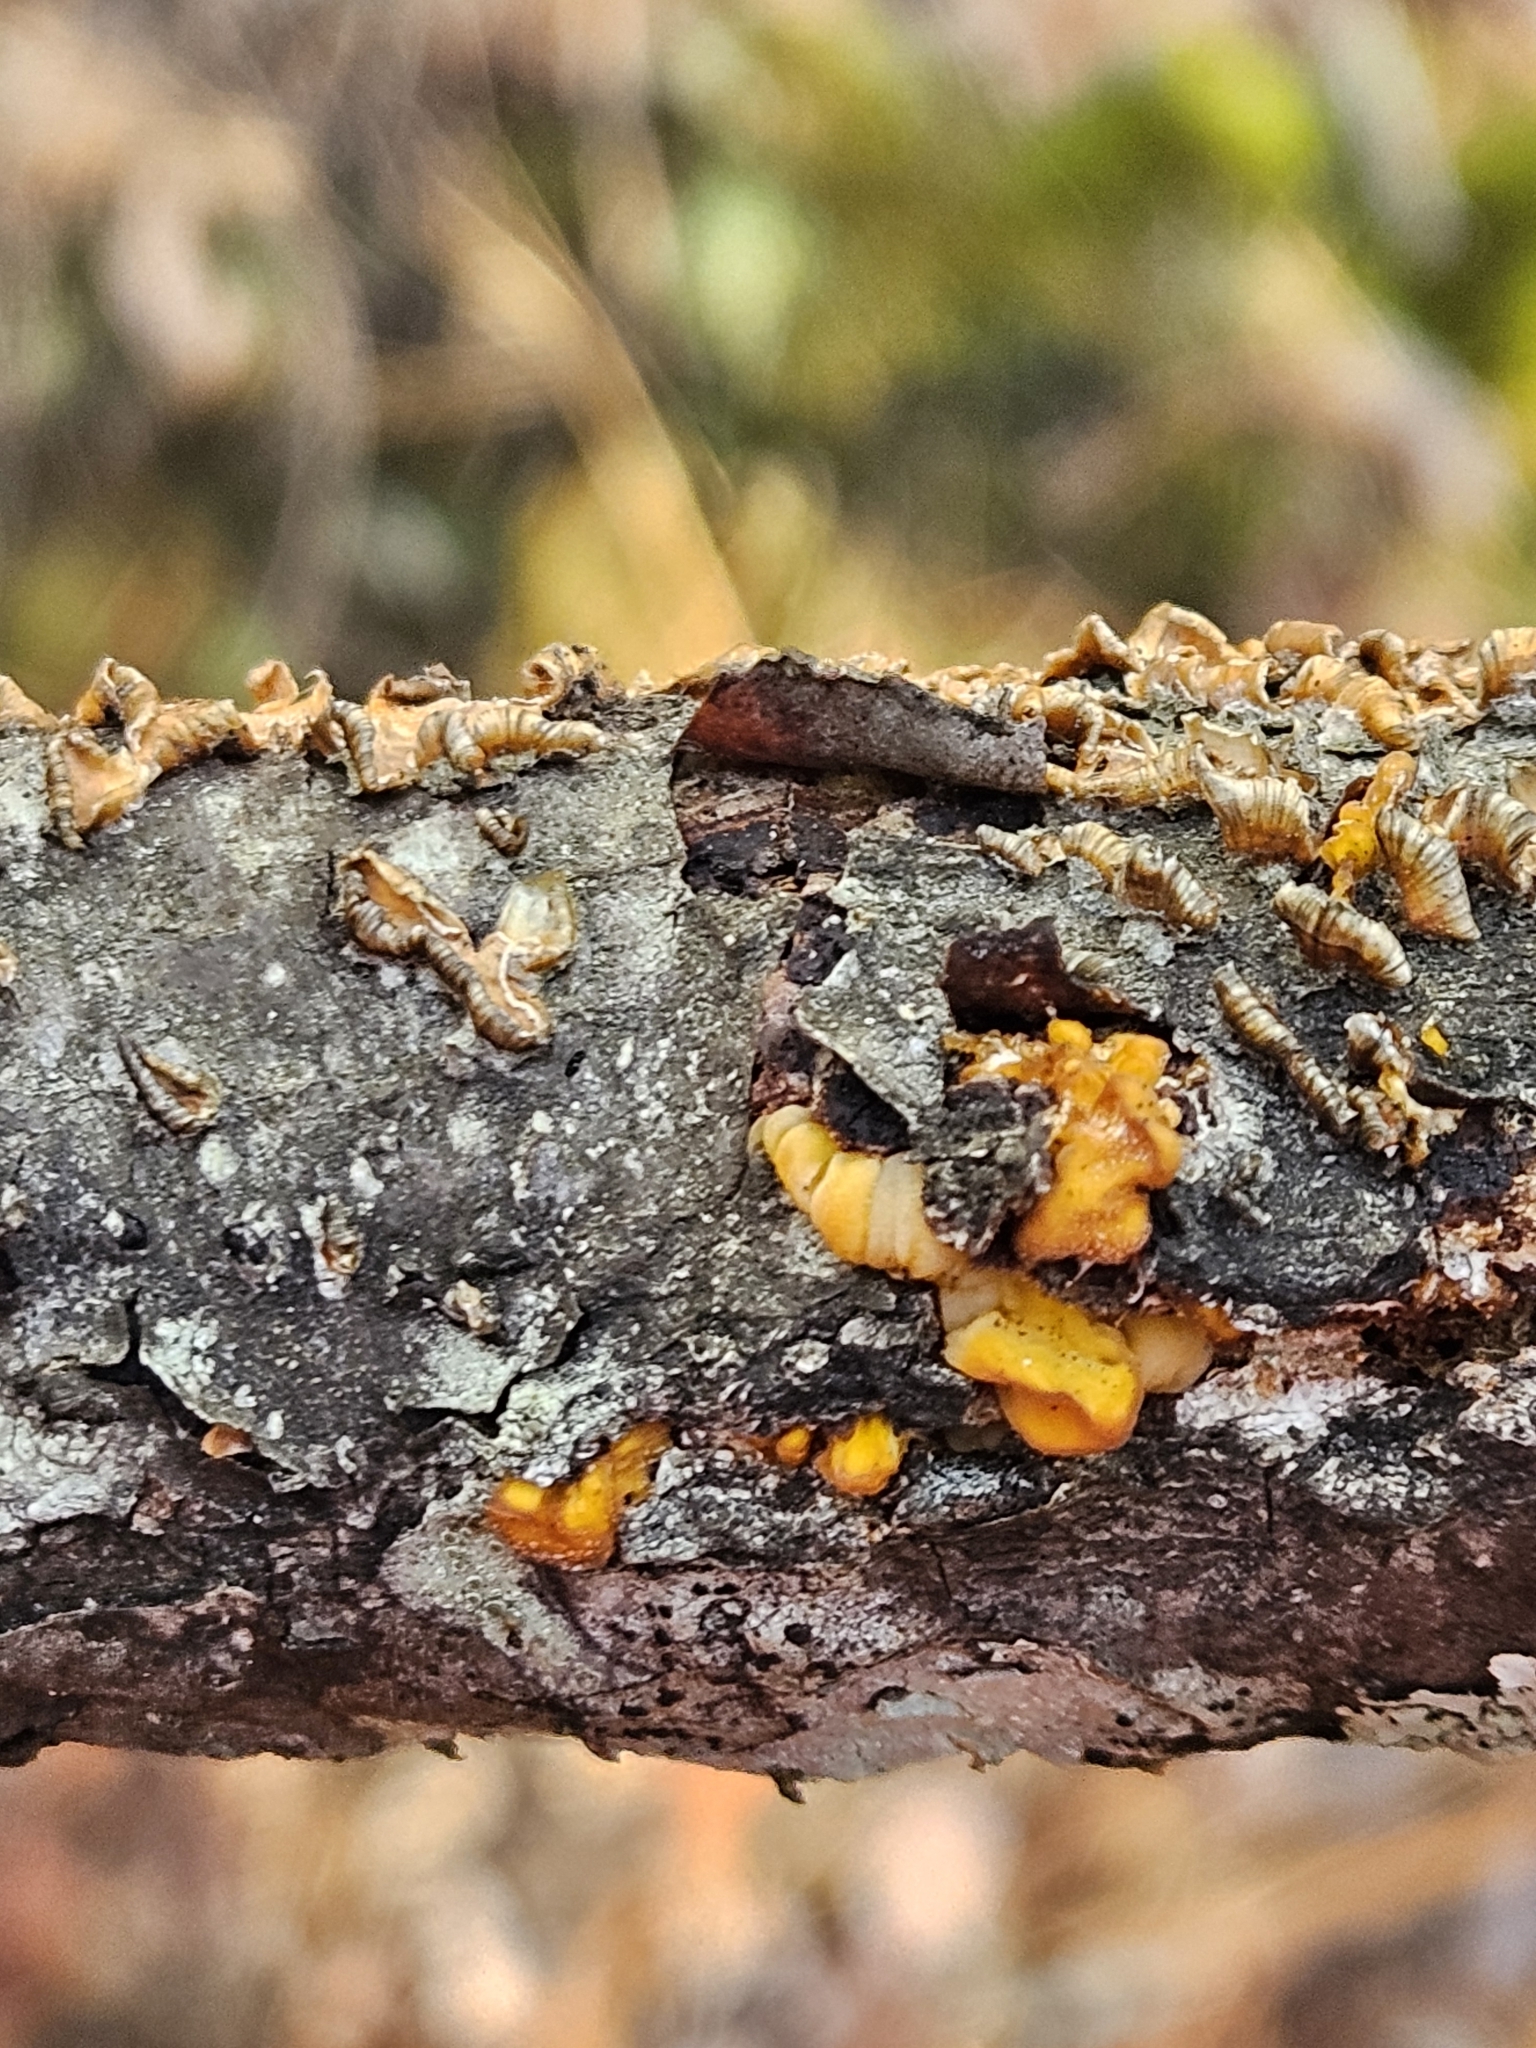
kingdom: Fungi
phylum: Basidiomycota
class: Tremellomycetes
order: Tremellales
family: Naemateliaceae
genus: Naematelia
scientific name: Naematelia aurantia
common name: Golden ear
